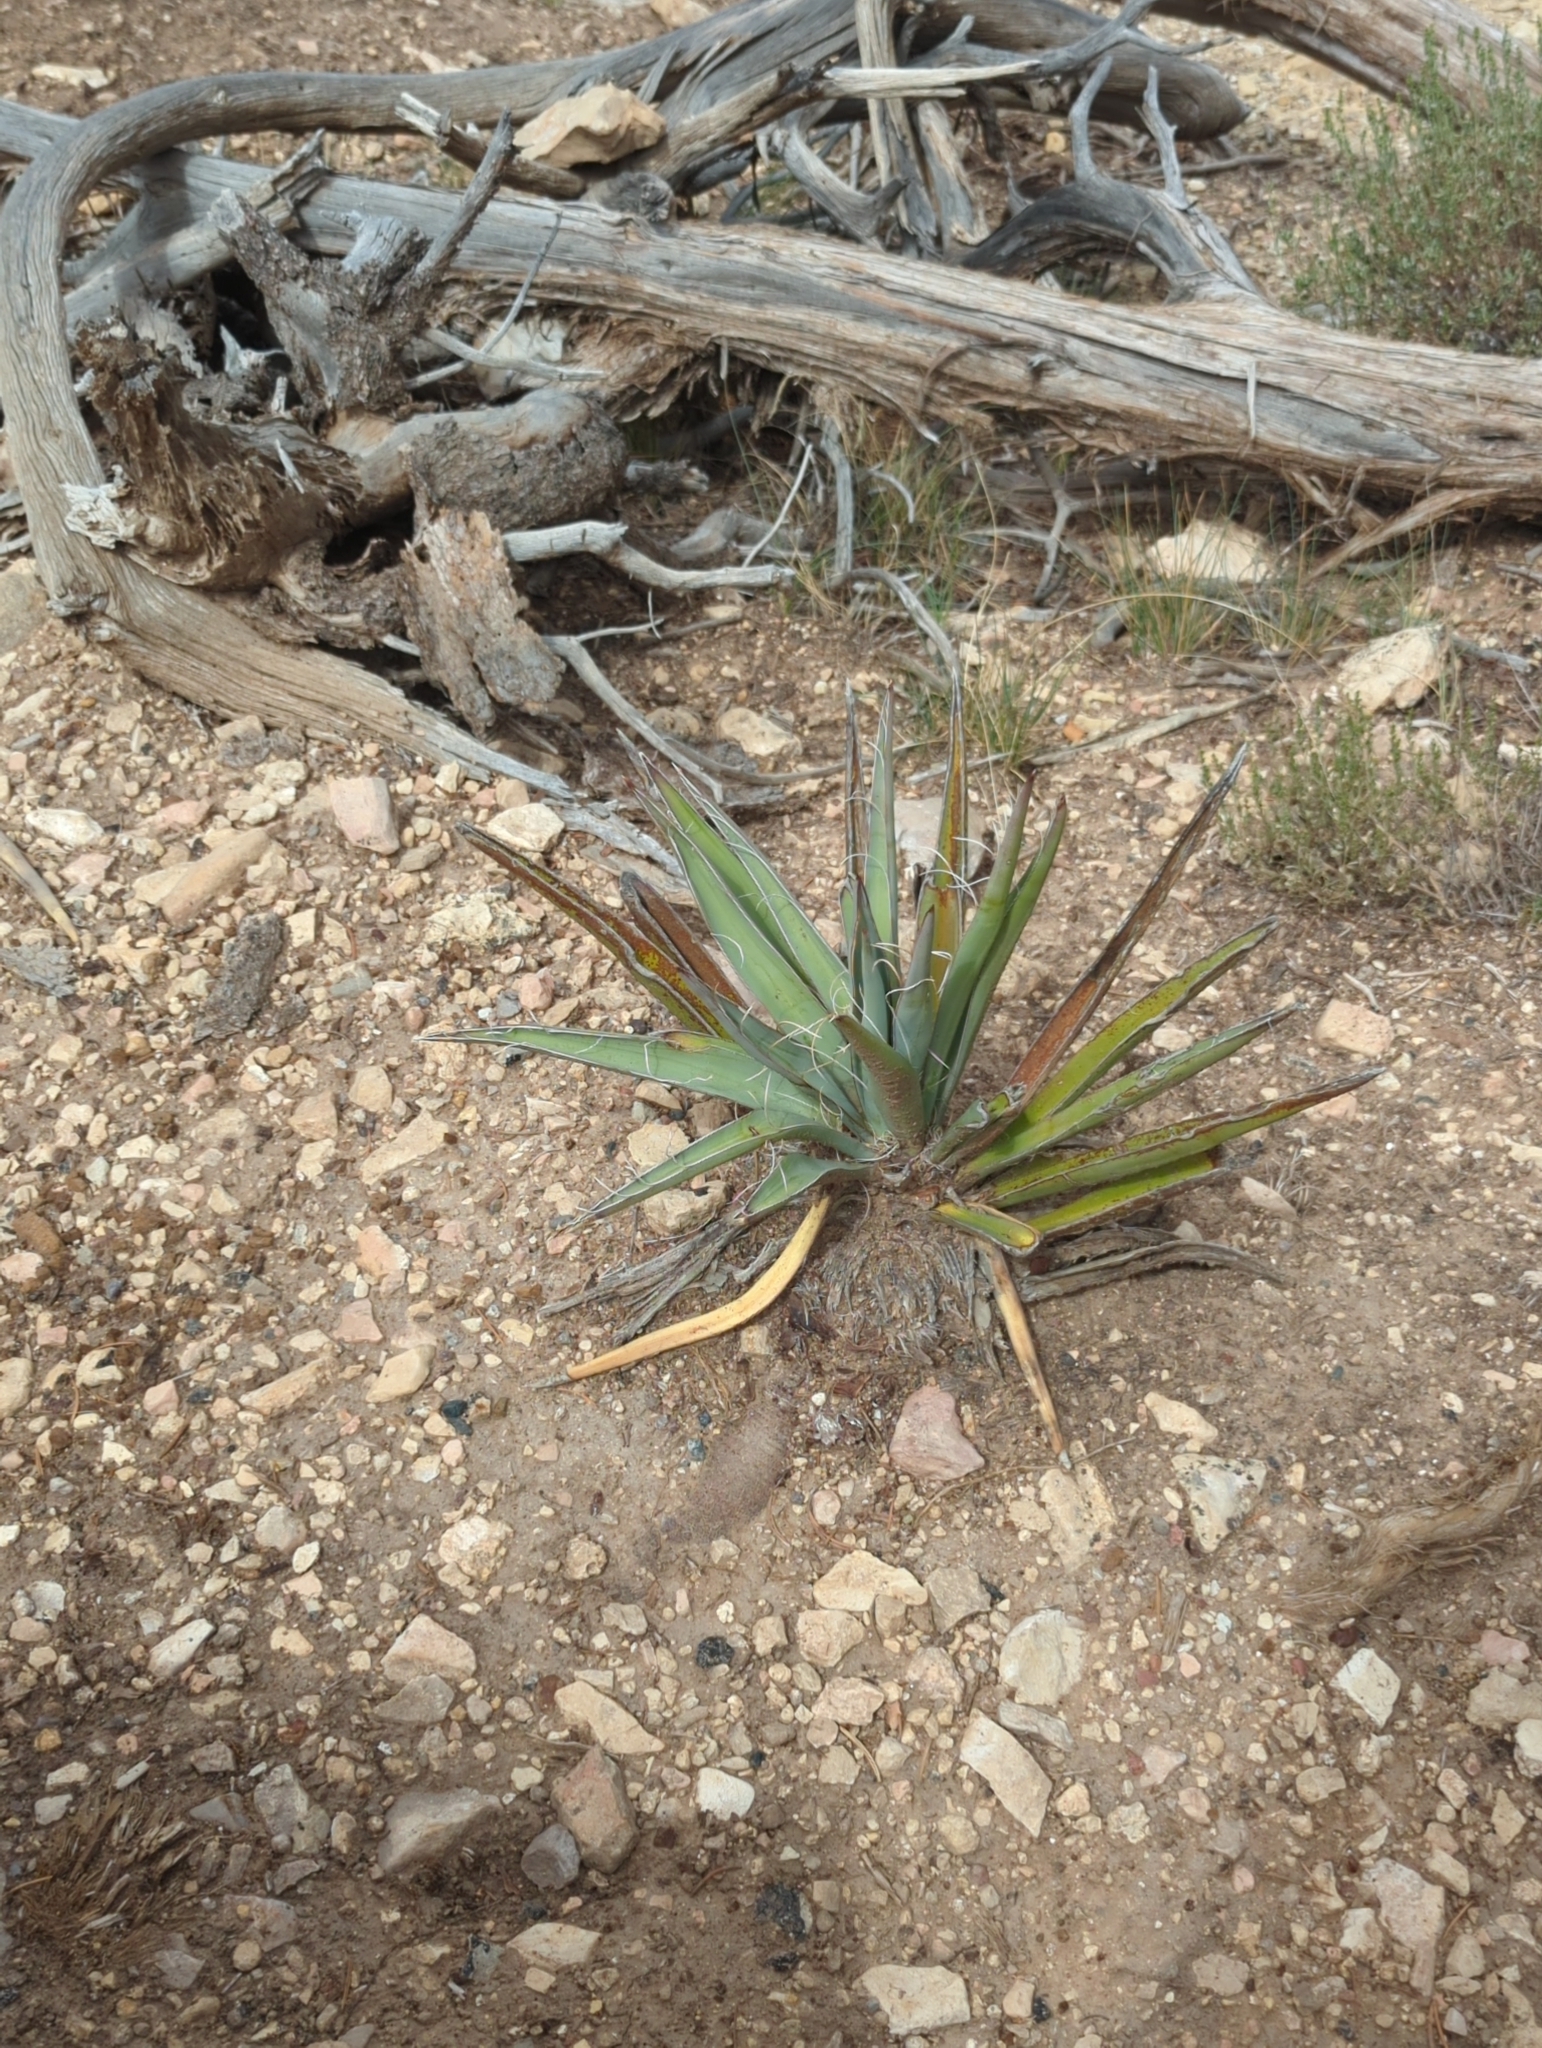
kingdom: Plantae
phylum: Tracheophyta
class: Liliopsida
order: Asparagales
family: Asparagaceae
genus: Yucca
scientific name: Yucca baccata
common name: Banana yucca
